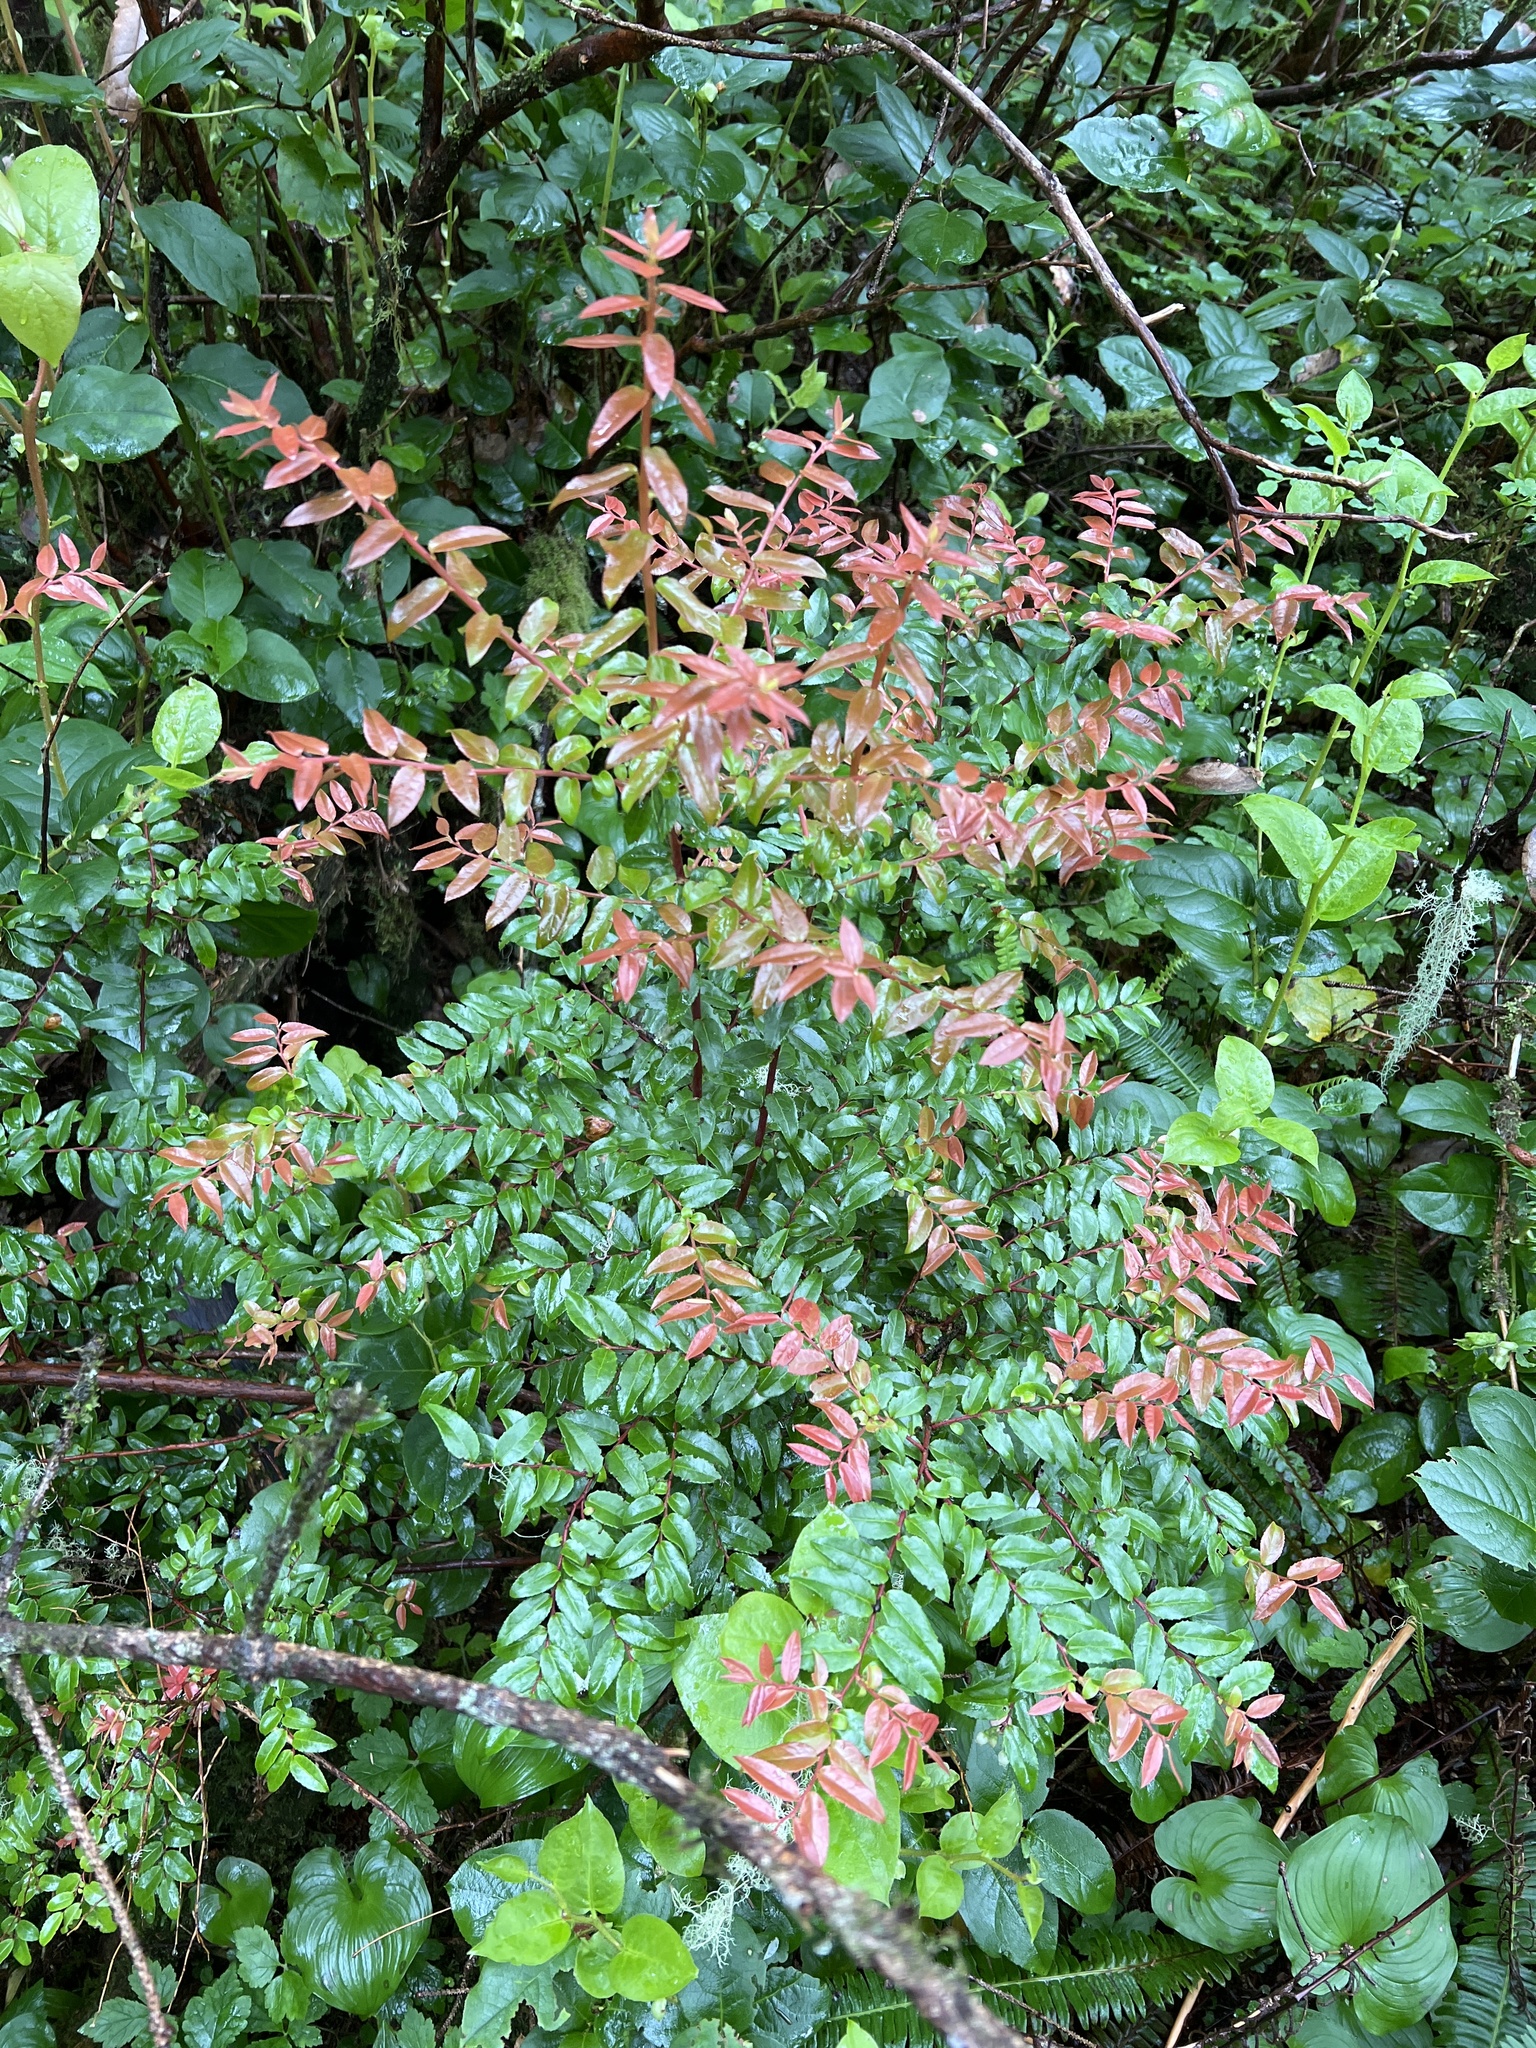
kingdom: Plantae
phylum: Tracheophyta
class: Magnoliopsida
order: Ericales
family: Ericaceae
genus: Vaccinium
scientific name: Vaccinium ovatum
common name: California-huckleberry
